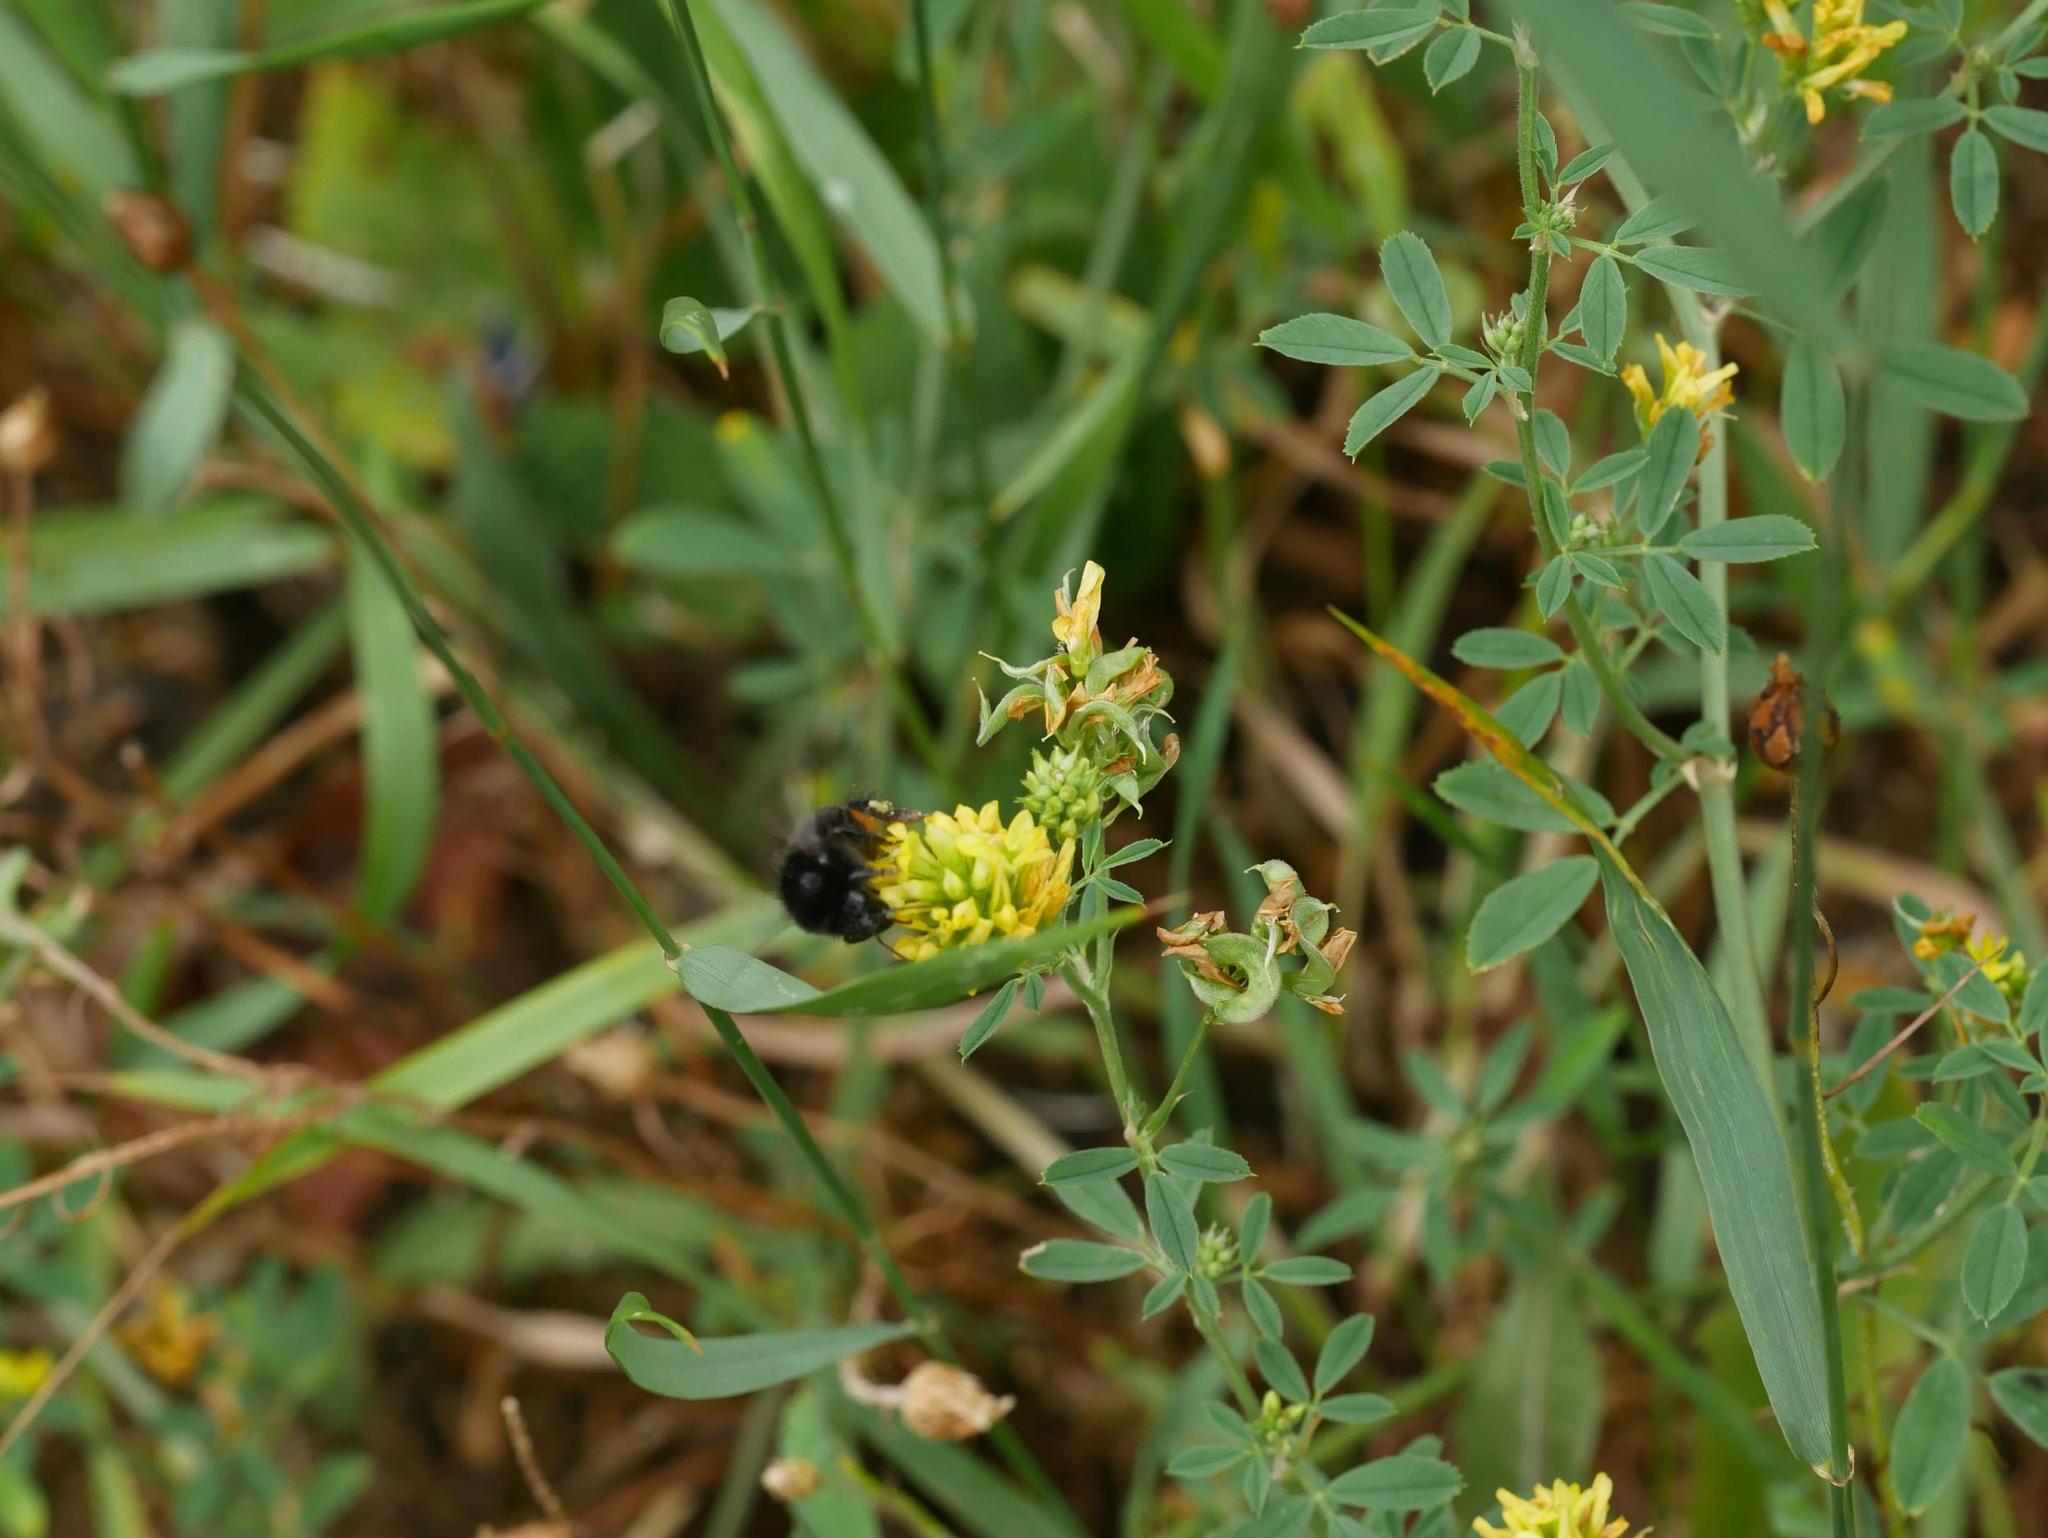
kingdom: Plantae
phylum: Tracheophyta
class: Magnoliopsida
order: Fabales
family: Fabaceae
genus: Medicago
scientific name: Medicago falcata
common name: Sickle medick
